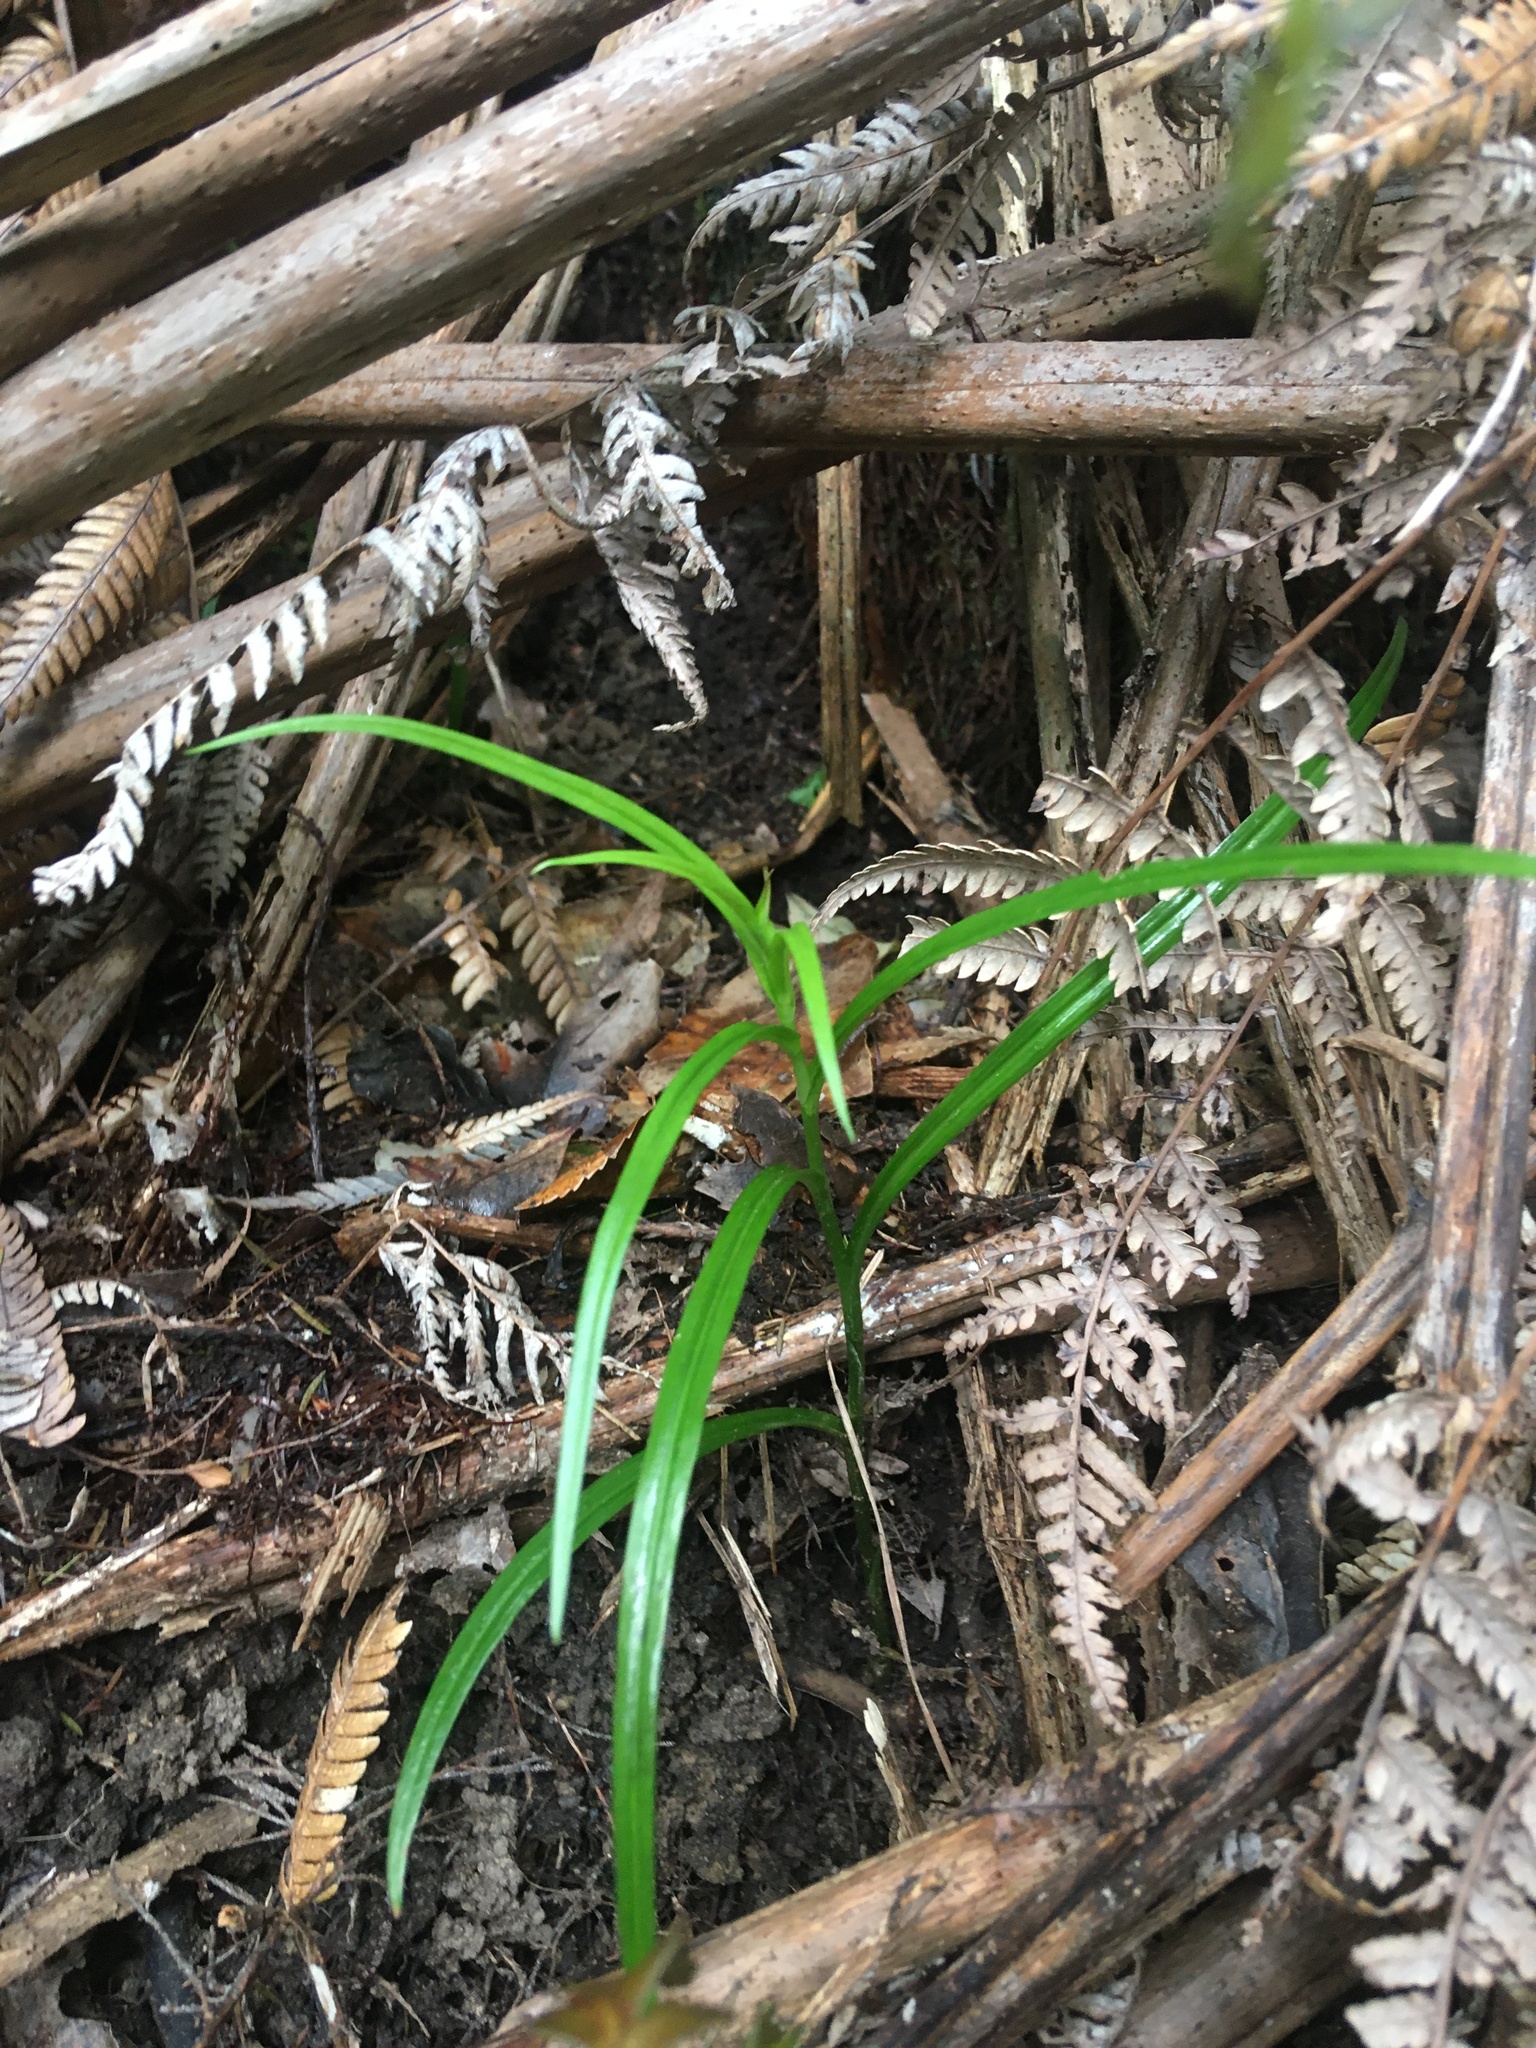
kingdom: Plantae
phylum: Tracheophyta
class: Liliopsida
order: Asparagales
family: Orchidaceae
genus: Pterostylis
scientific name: Pterostylis graminea
